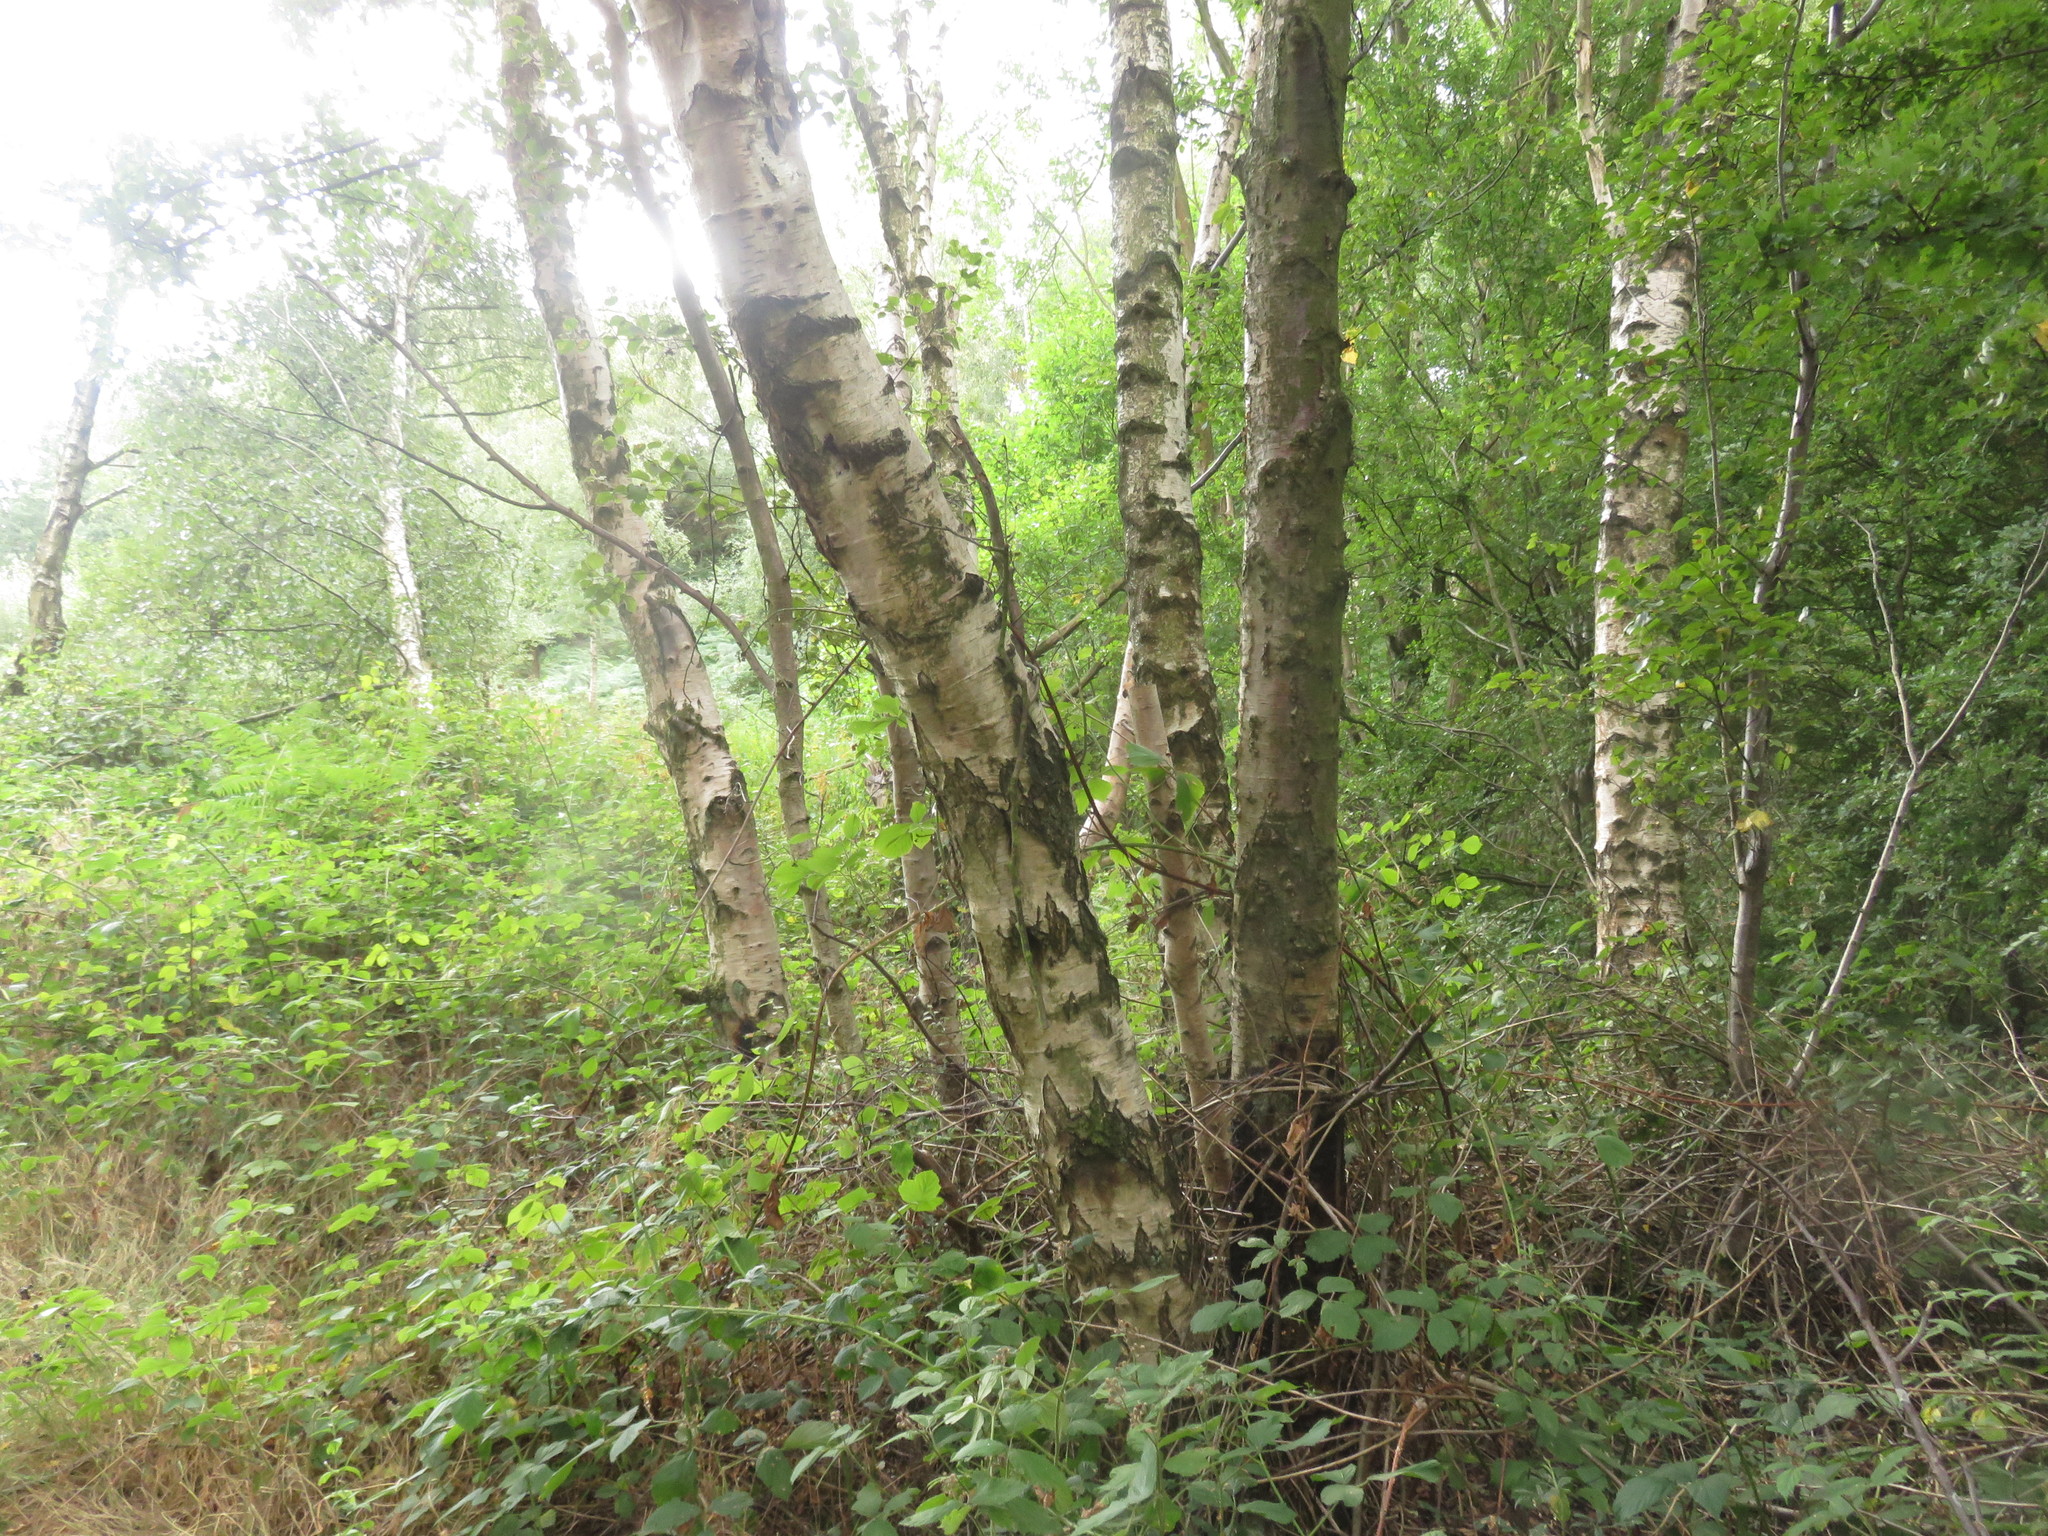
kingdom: Plantae
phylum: Tracheophyta
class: Magnoliopsida
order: Fagales
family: Betulaceae
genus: Betula
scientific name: Betula pendula
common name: Silver birch
